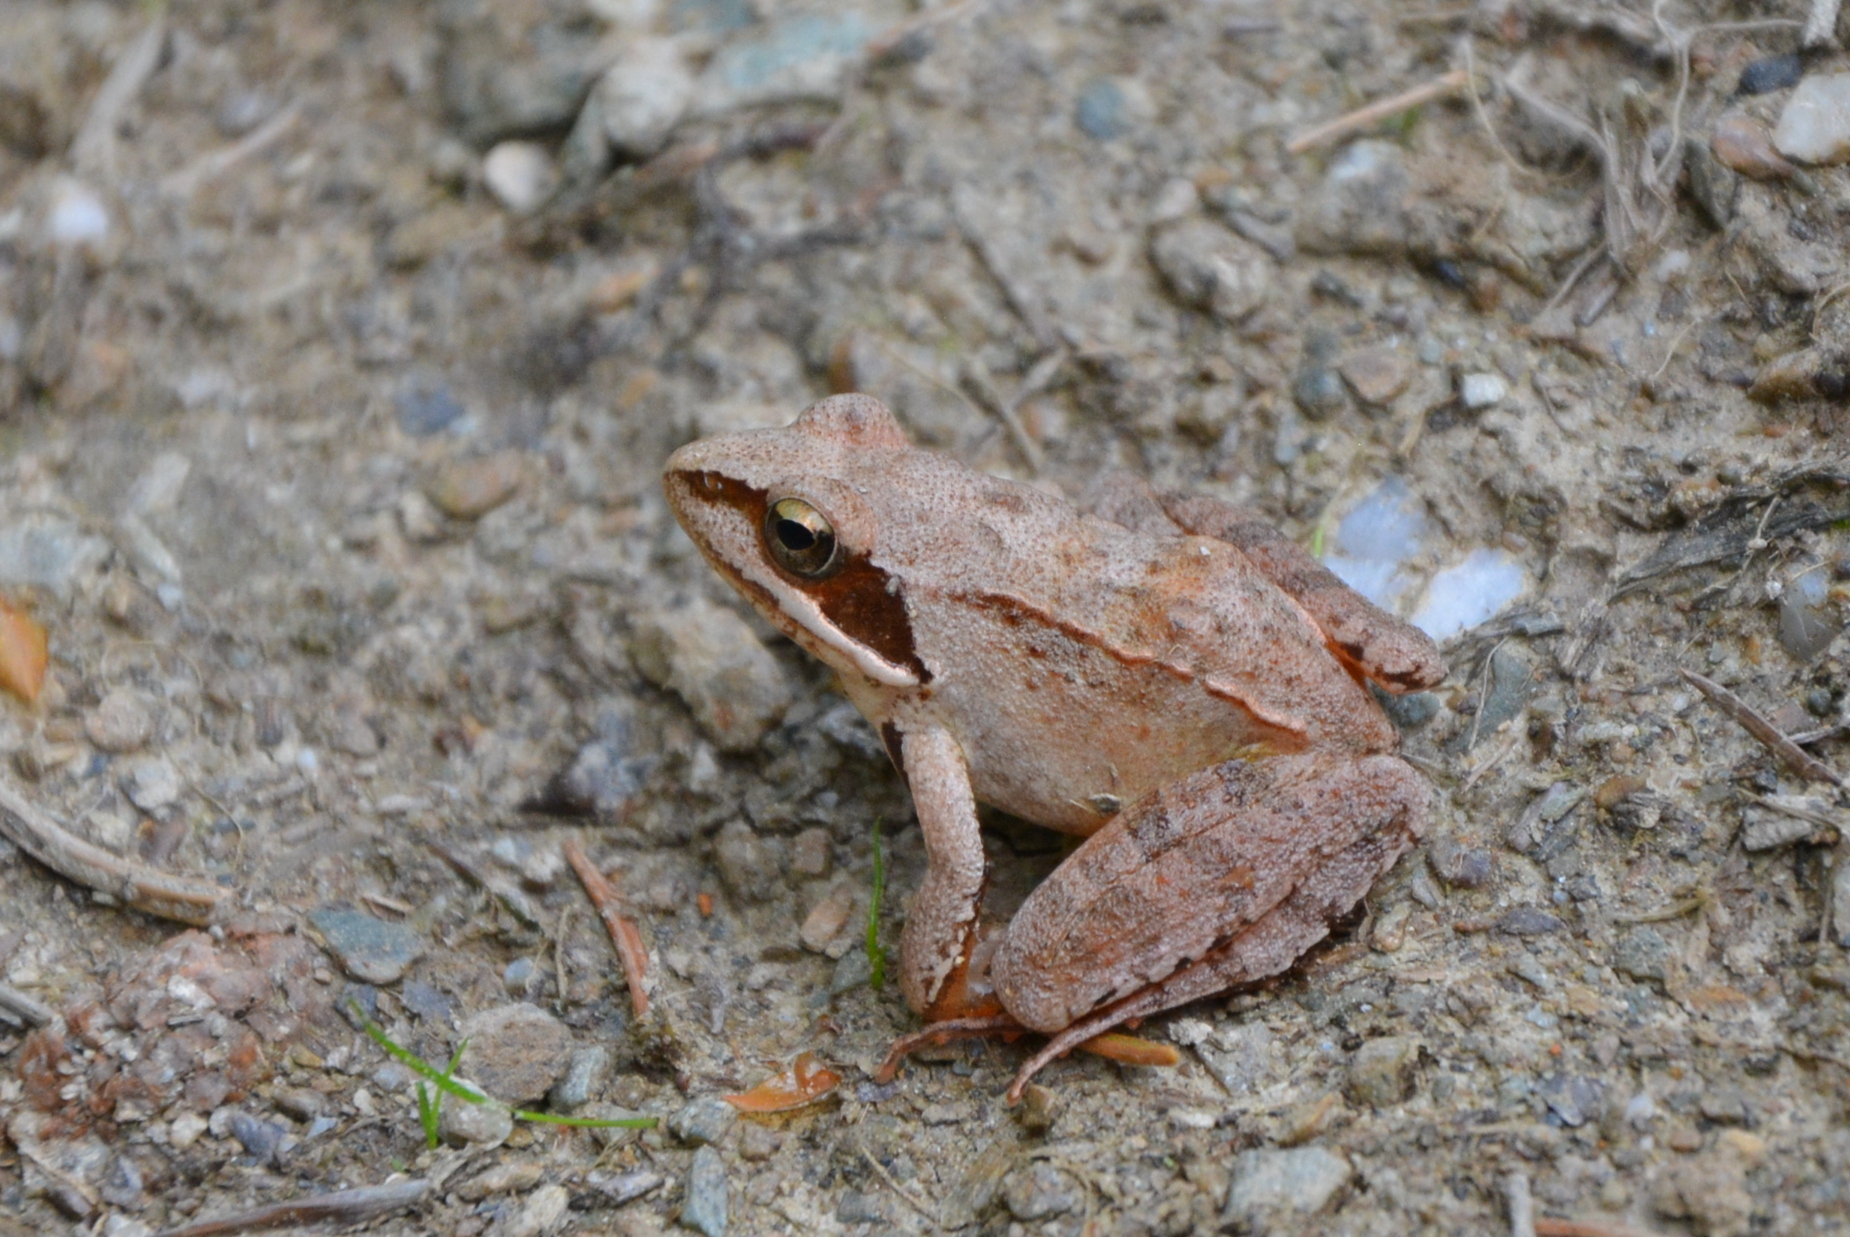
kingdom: Animalia
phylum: Chordata
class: Amphibia
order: Anura
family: Ranidae
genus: Rana
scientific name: Rana dalmatina
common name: Agile frog
